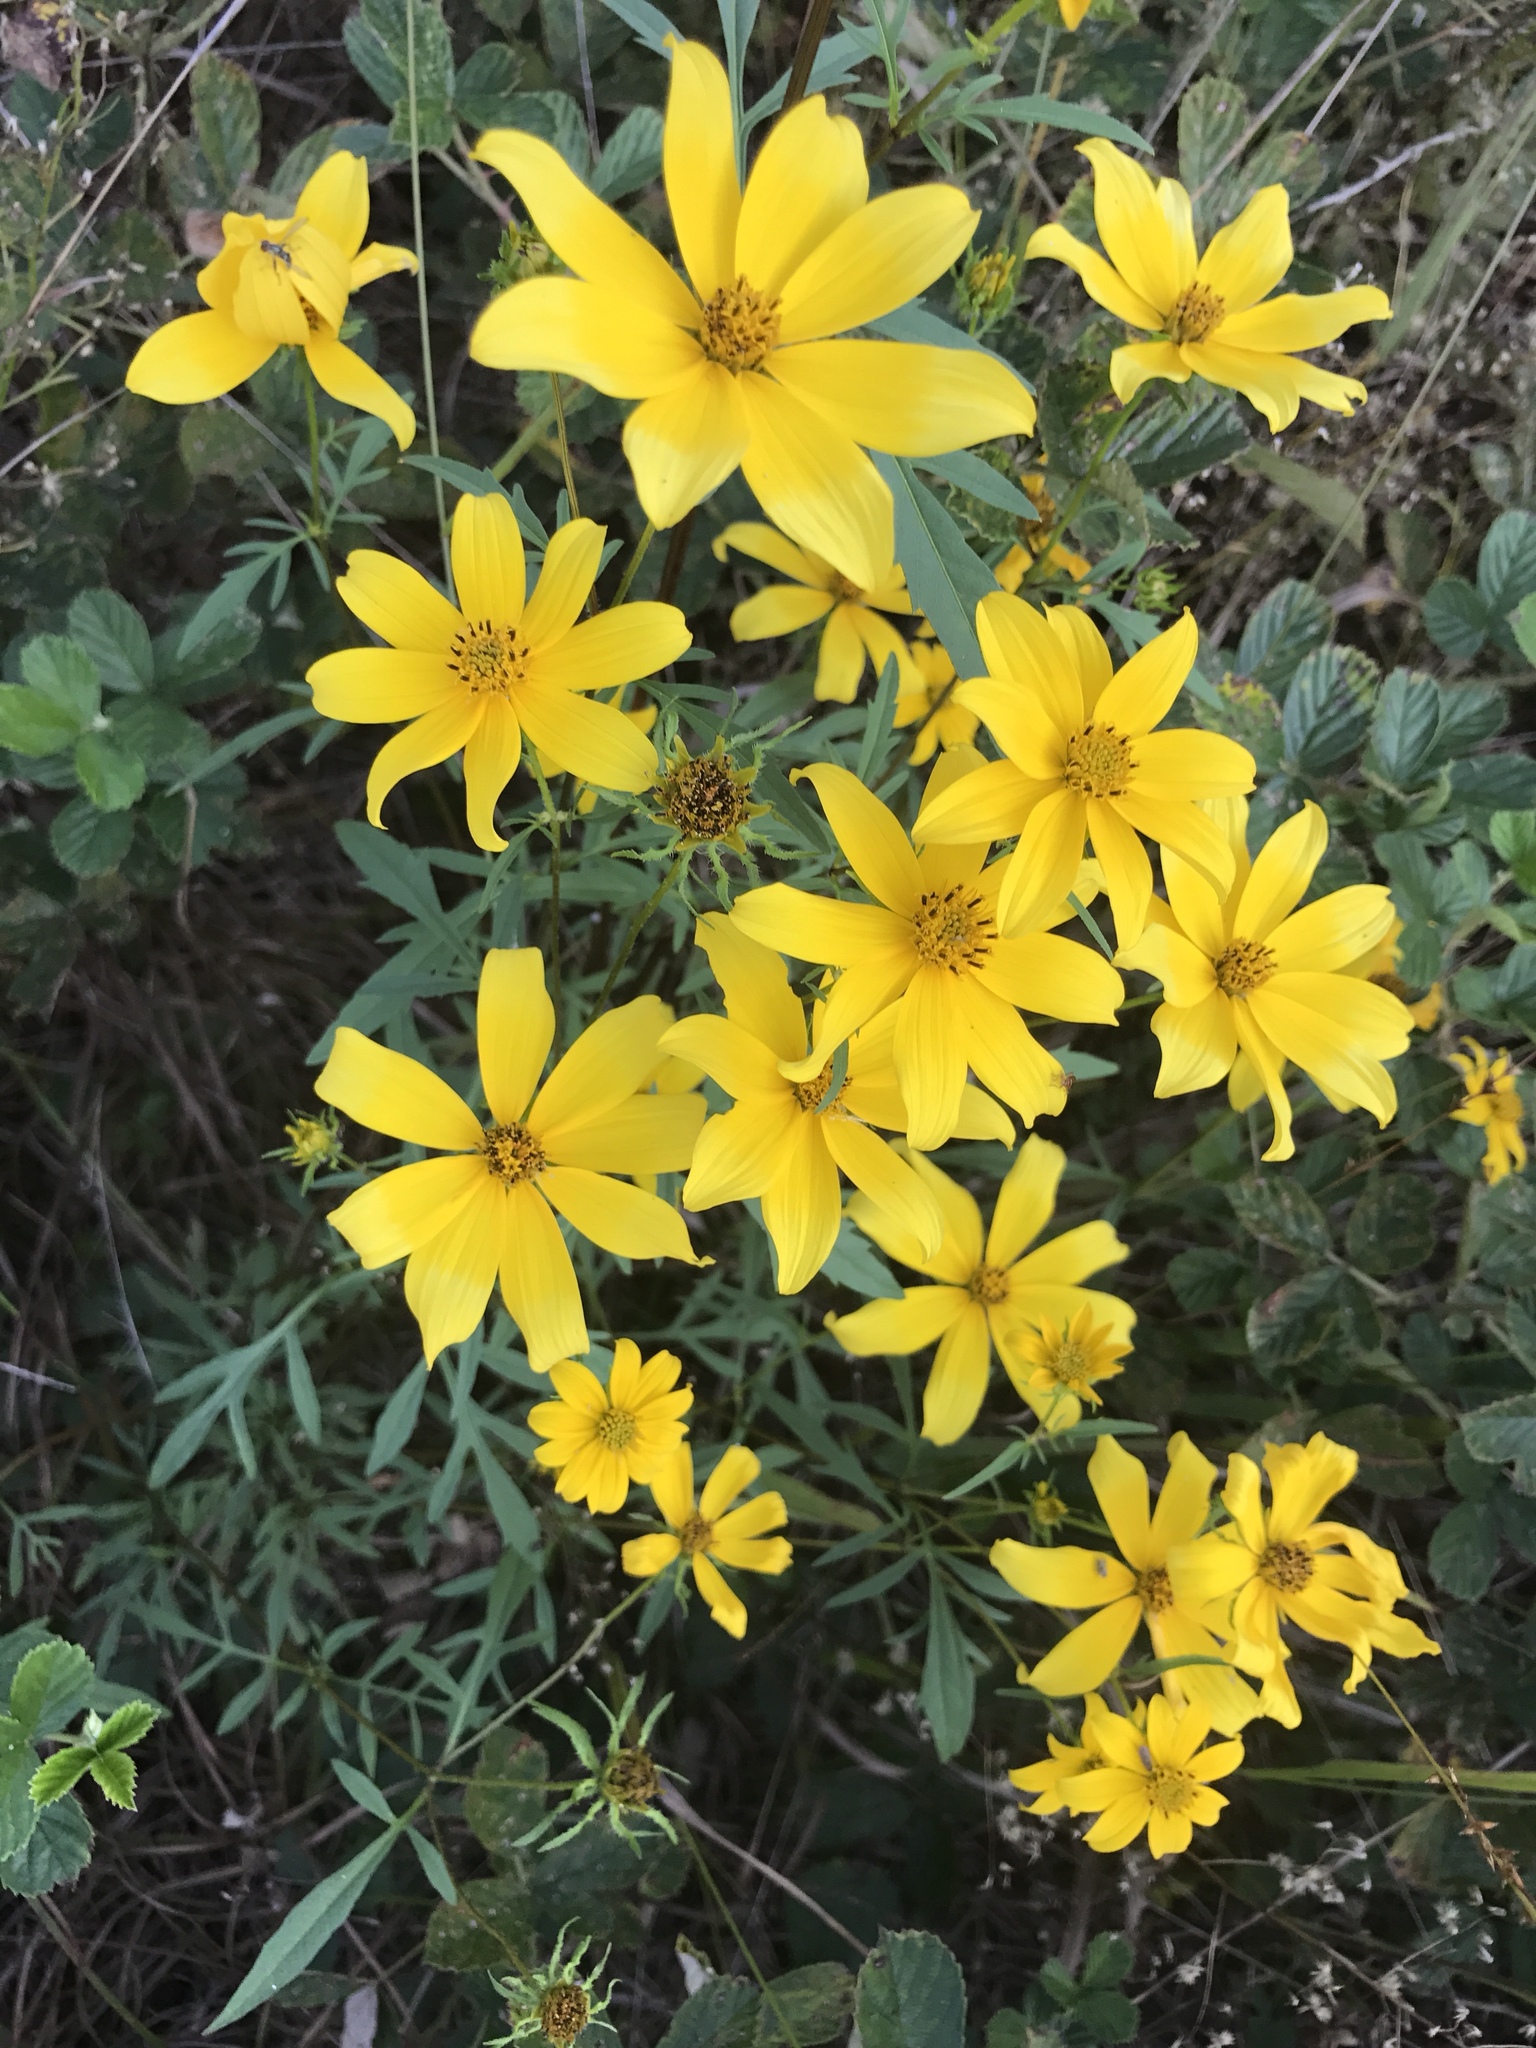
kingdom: Plantae
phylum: Tracheophyta
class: Magnoliopsida
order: Asterales
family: Asteraceae
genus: Bidens
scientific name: Bidens aristosa
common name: Western tickseed
